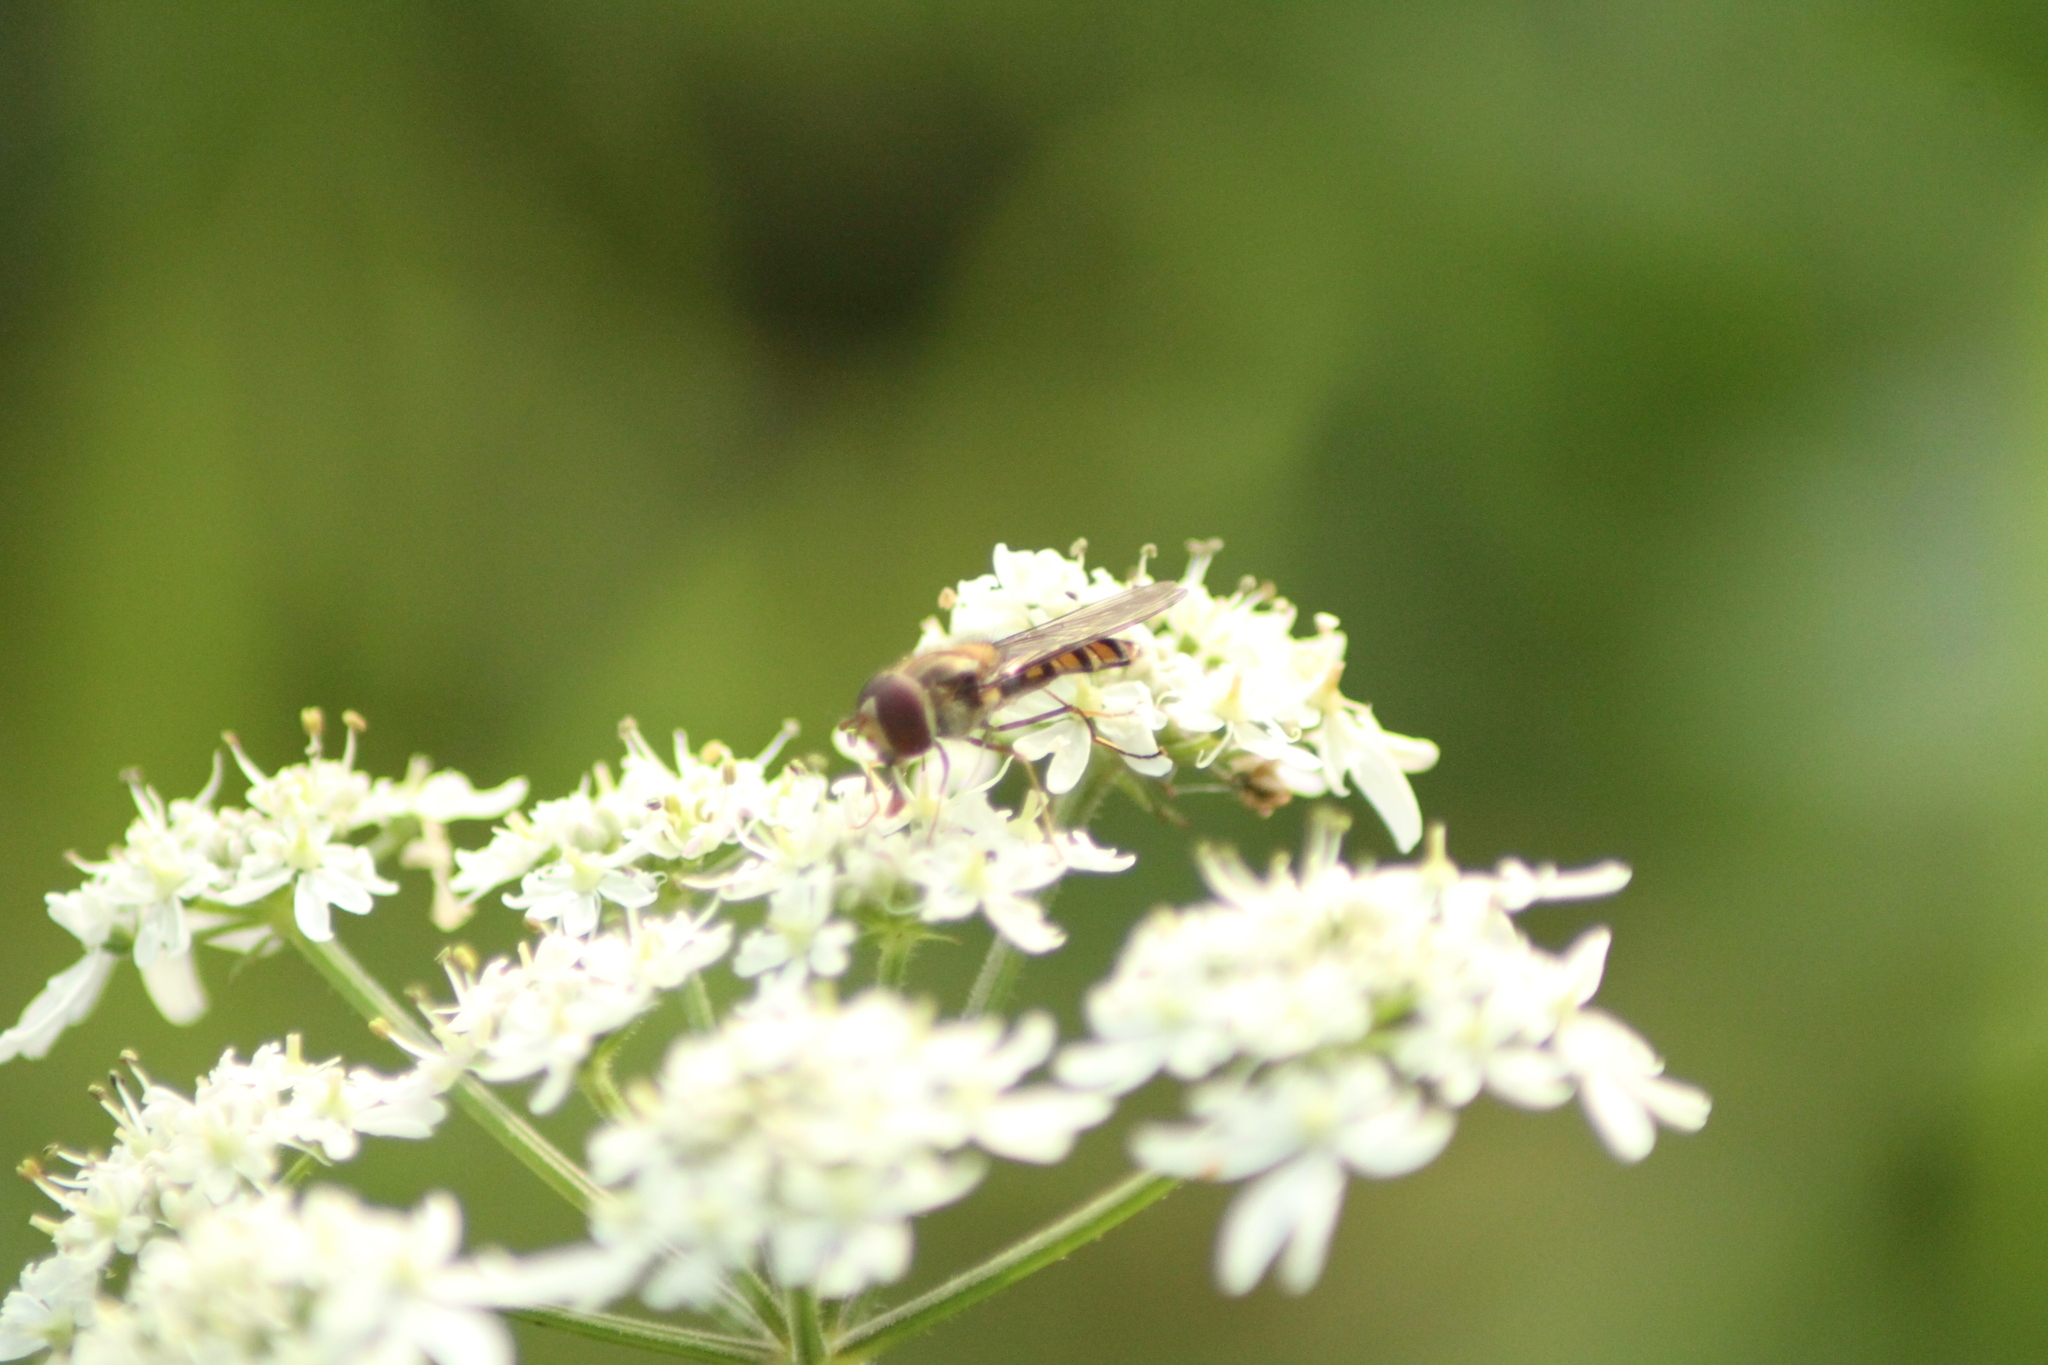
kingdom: Animalia
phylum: Arthropoda
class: Insecta
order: Diptera
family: Syrphidae
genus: Episyrphus
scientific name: Episyrphus balteatus
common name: Marmalade hoverfly
